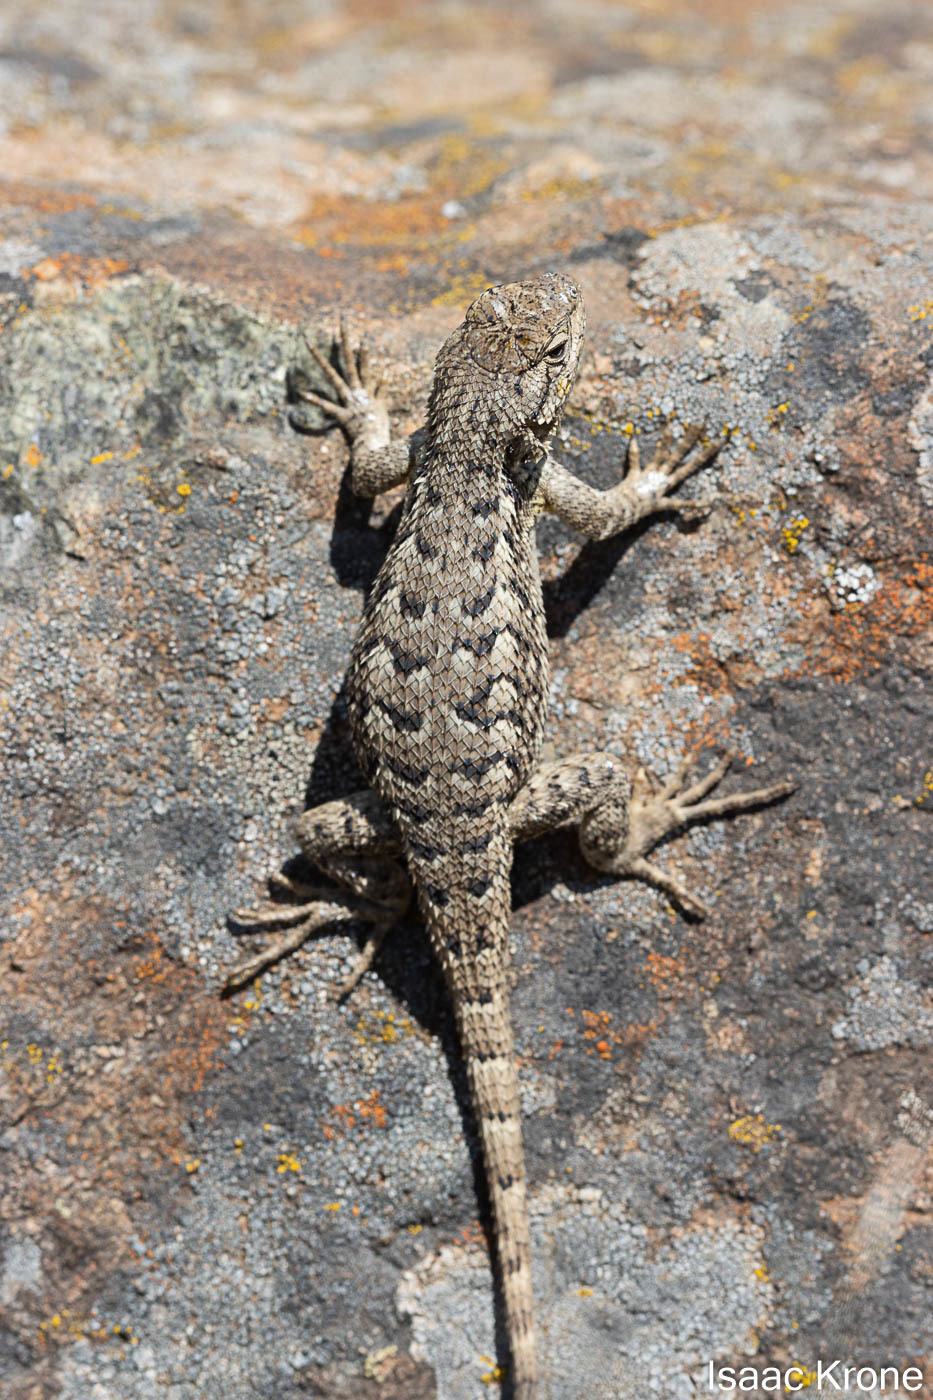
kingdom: Animalia
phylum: Chordata
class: Squamata
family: Phrynosomatidae
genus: Sceloporus
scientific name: Sceloporus occidentalis
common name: Western fence lizard
